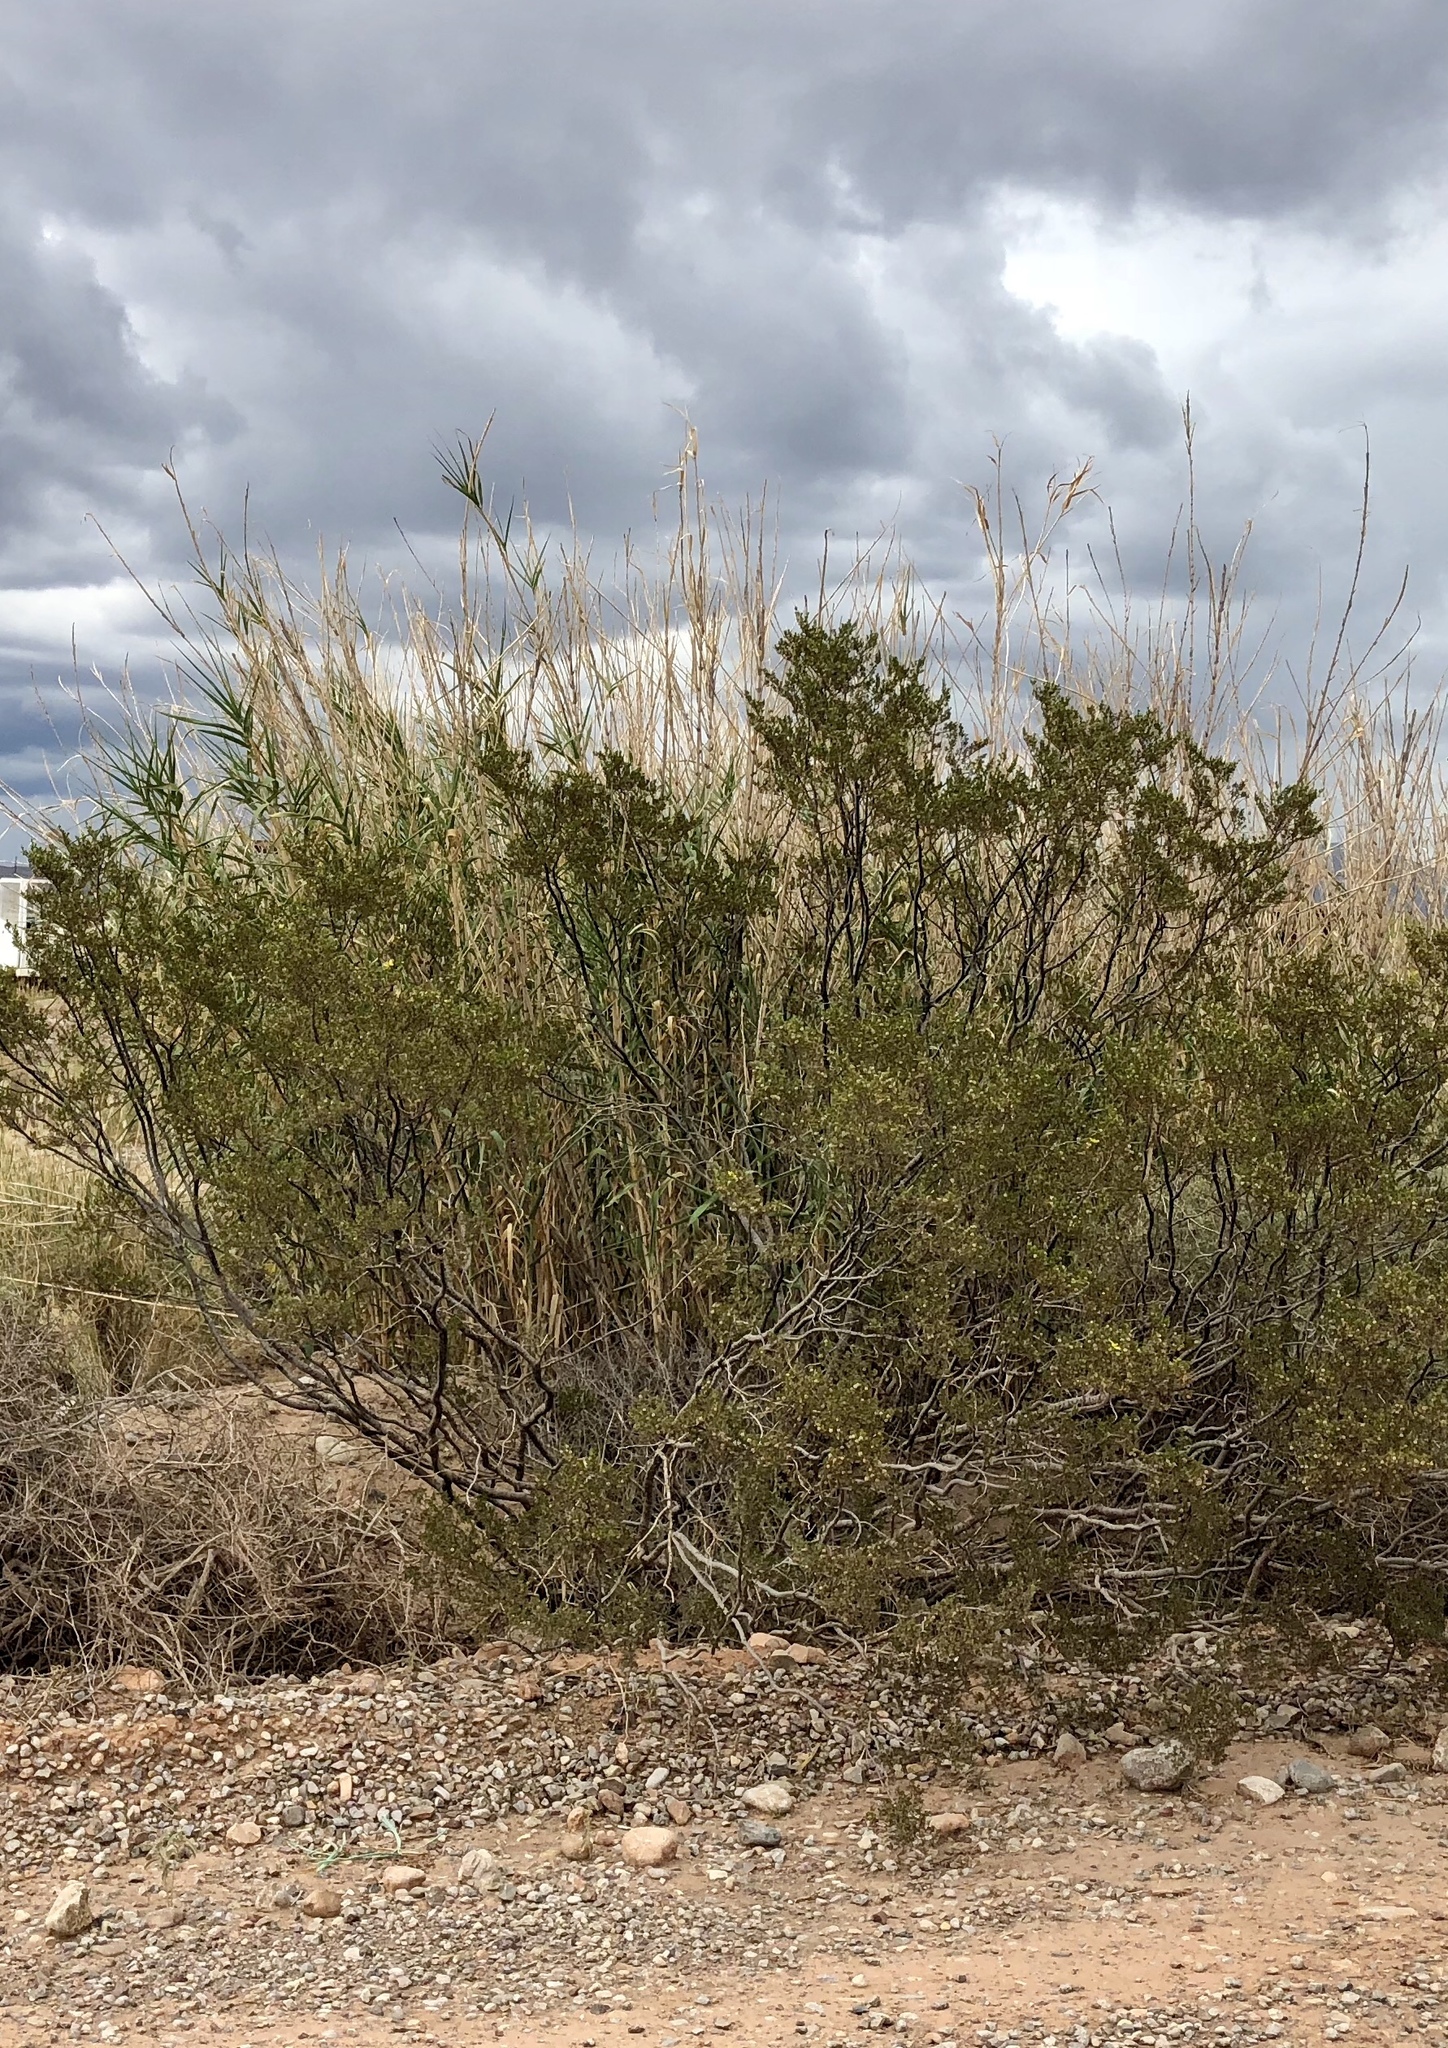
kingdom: Plantae
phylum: Tracheophyta
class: Magnoliopsida
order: Zygophyllales
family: Zygophyllaceae
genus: Larrea
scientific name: Larrea tridentata
